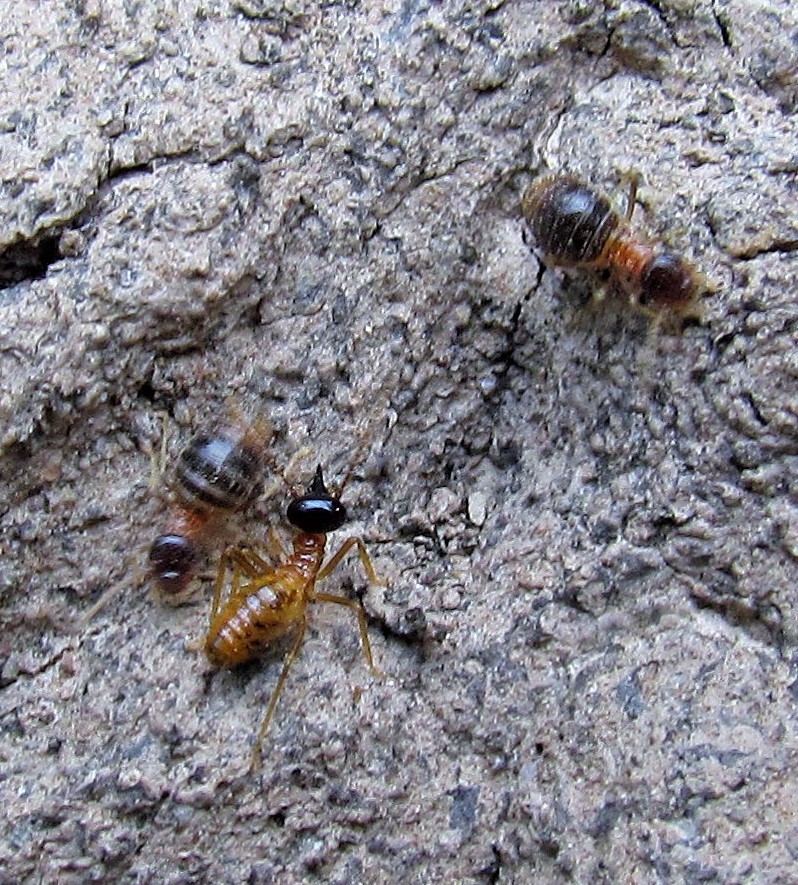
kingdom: Animalia
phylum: Arthropoda
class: Insecta
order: Blattodea
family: Termitidae
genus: Constrictotermes
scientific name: Constrictotermes cyphergaster
